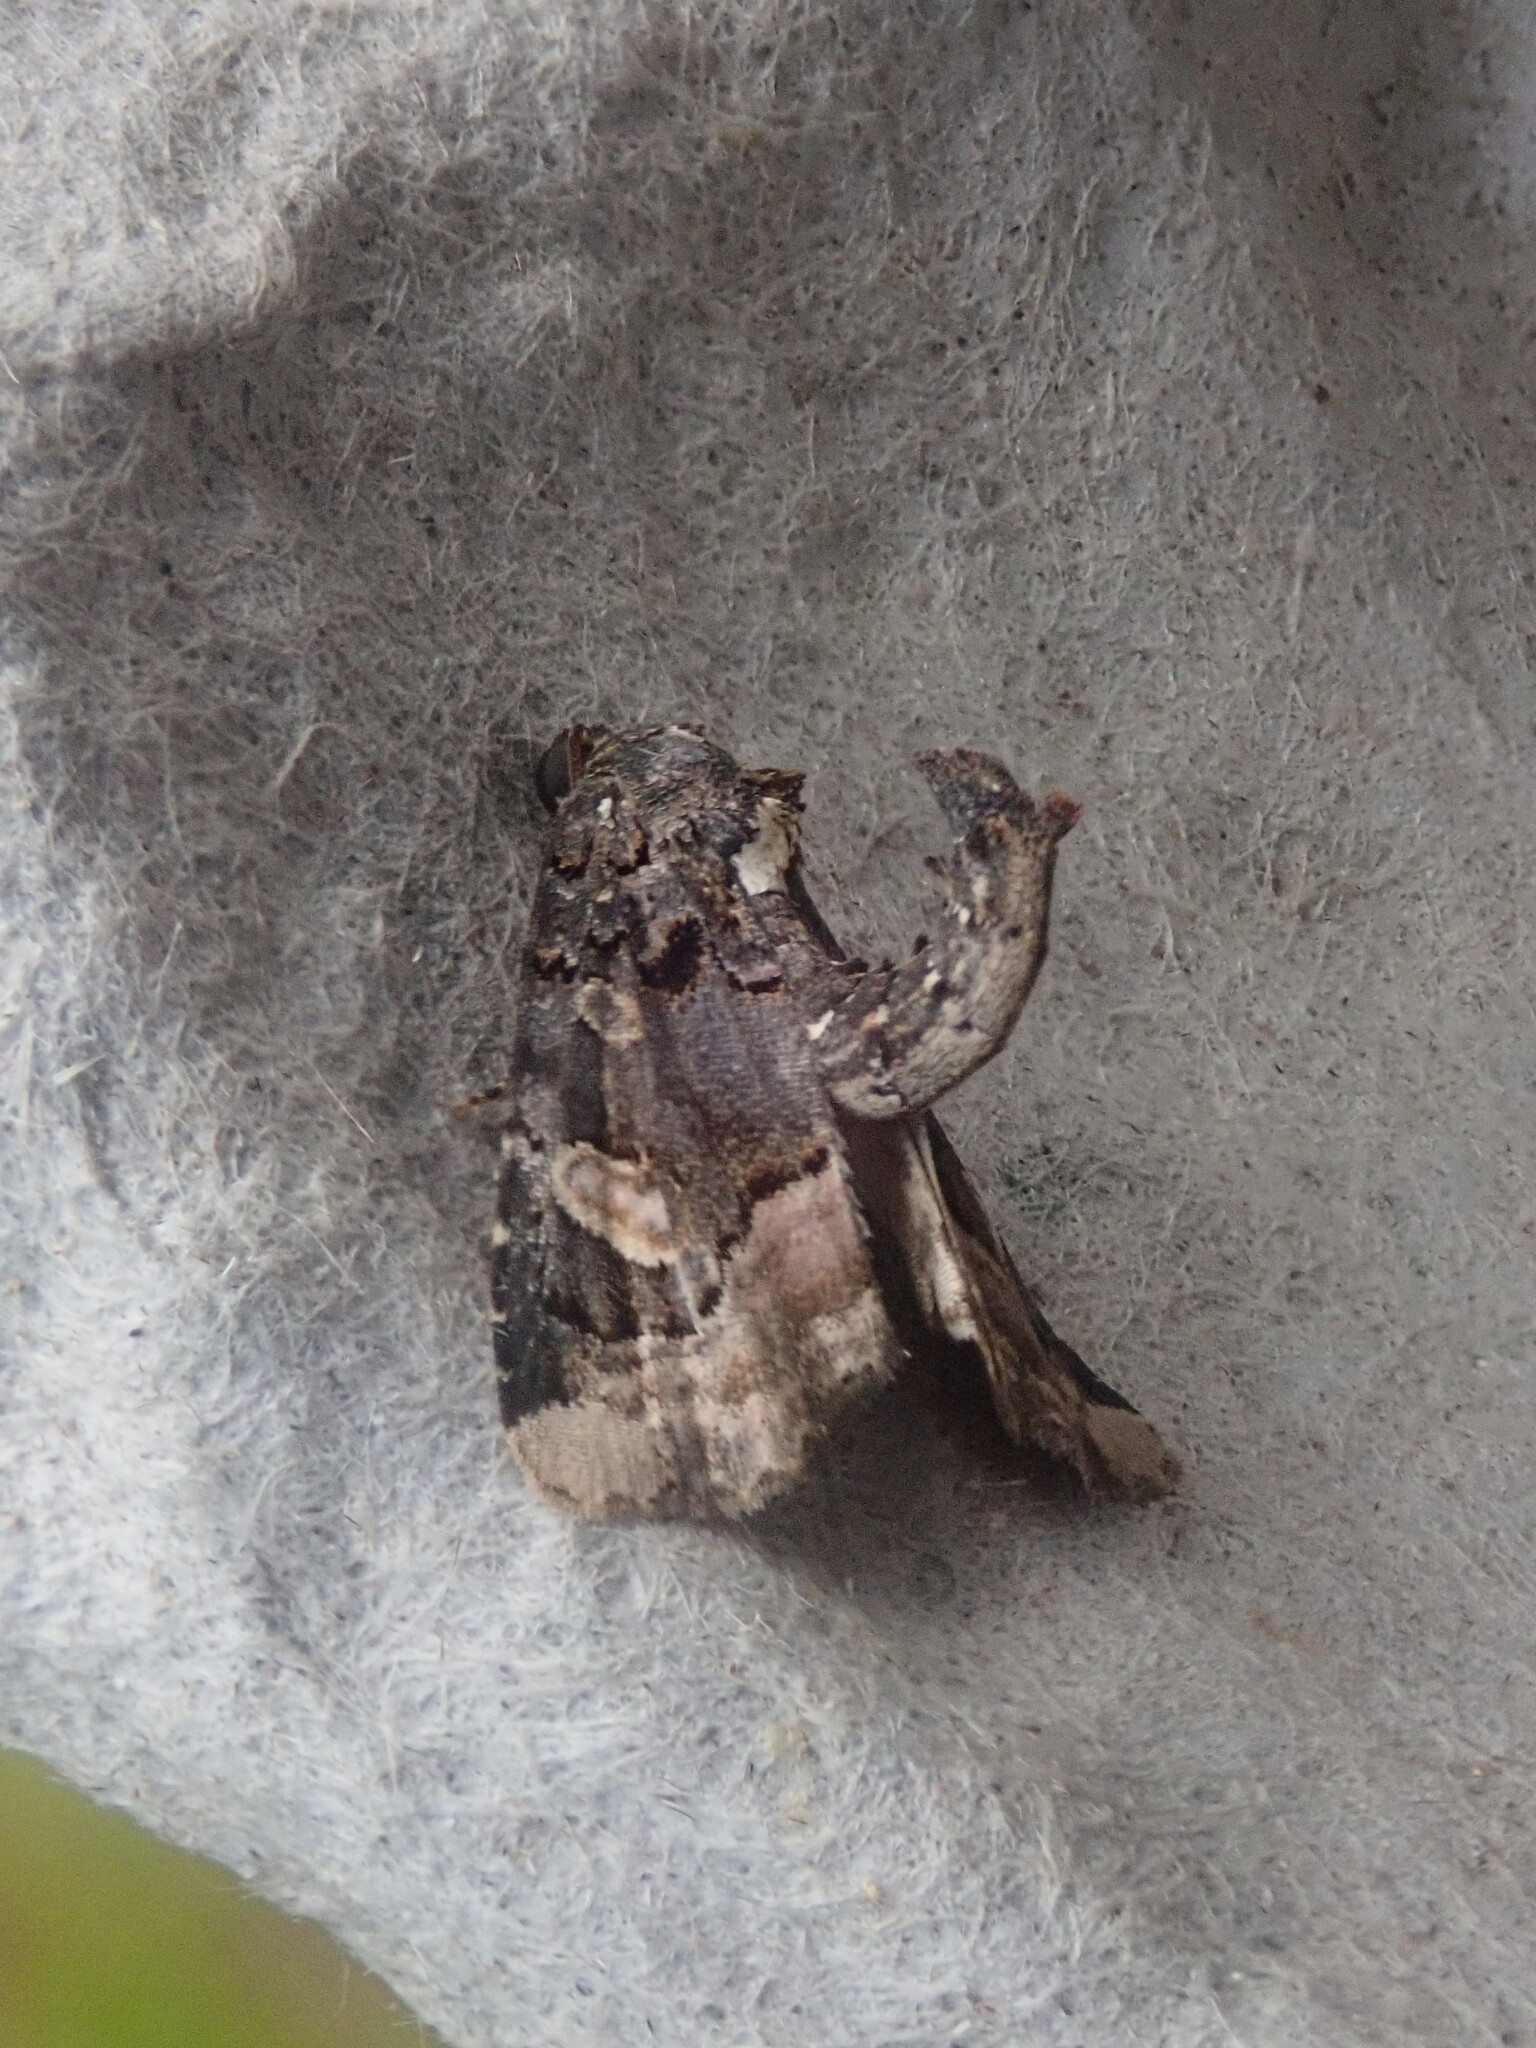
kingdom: Animalia
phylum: Arthropoda
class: Insecta
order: Lepidoptera
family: Noctuidae
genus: Homophoberia
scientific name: Homophoberia apicosa
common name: Black wedge-spot
